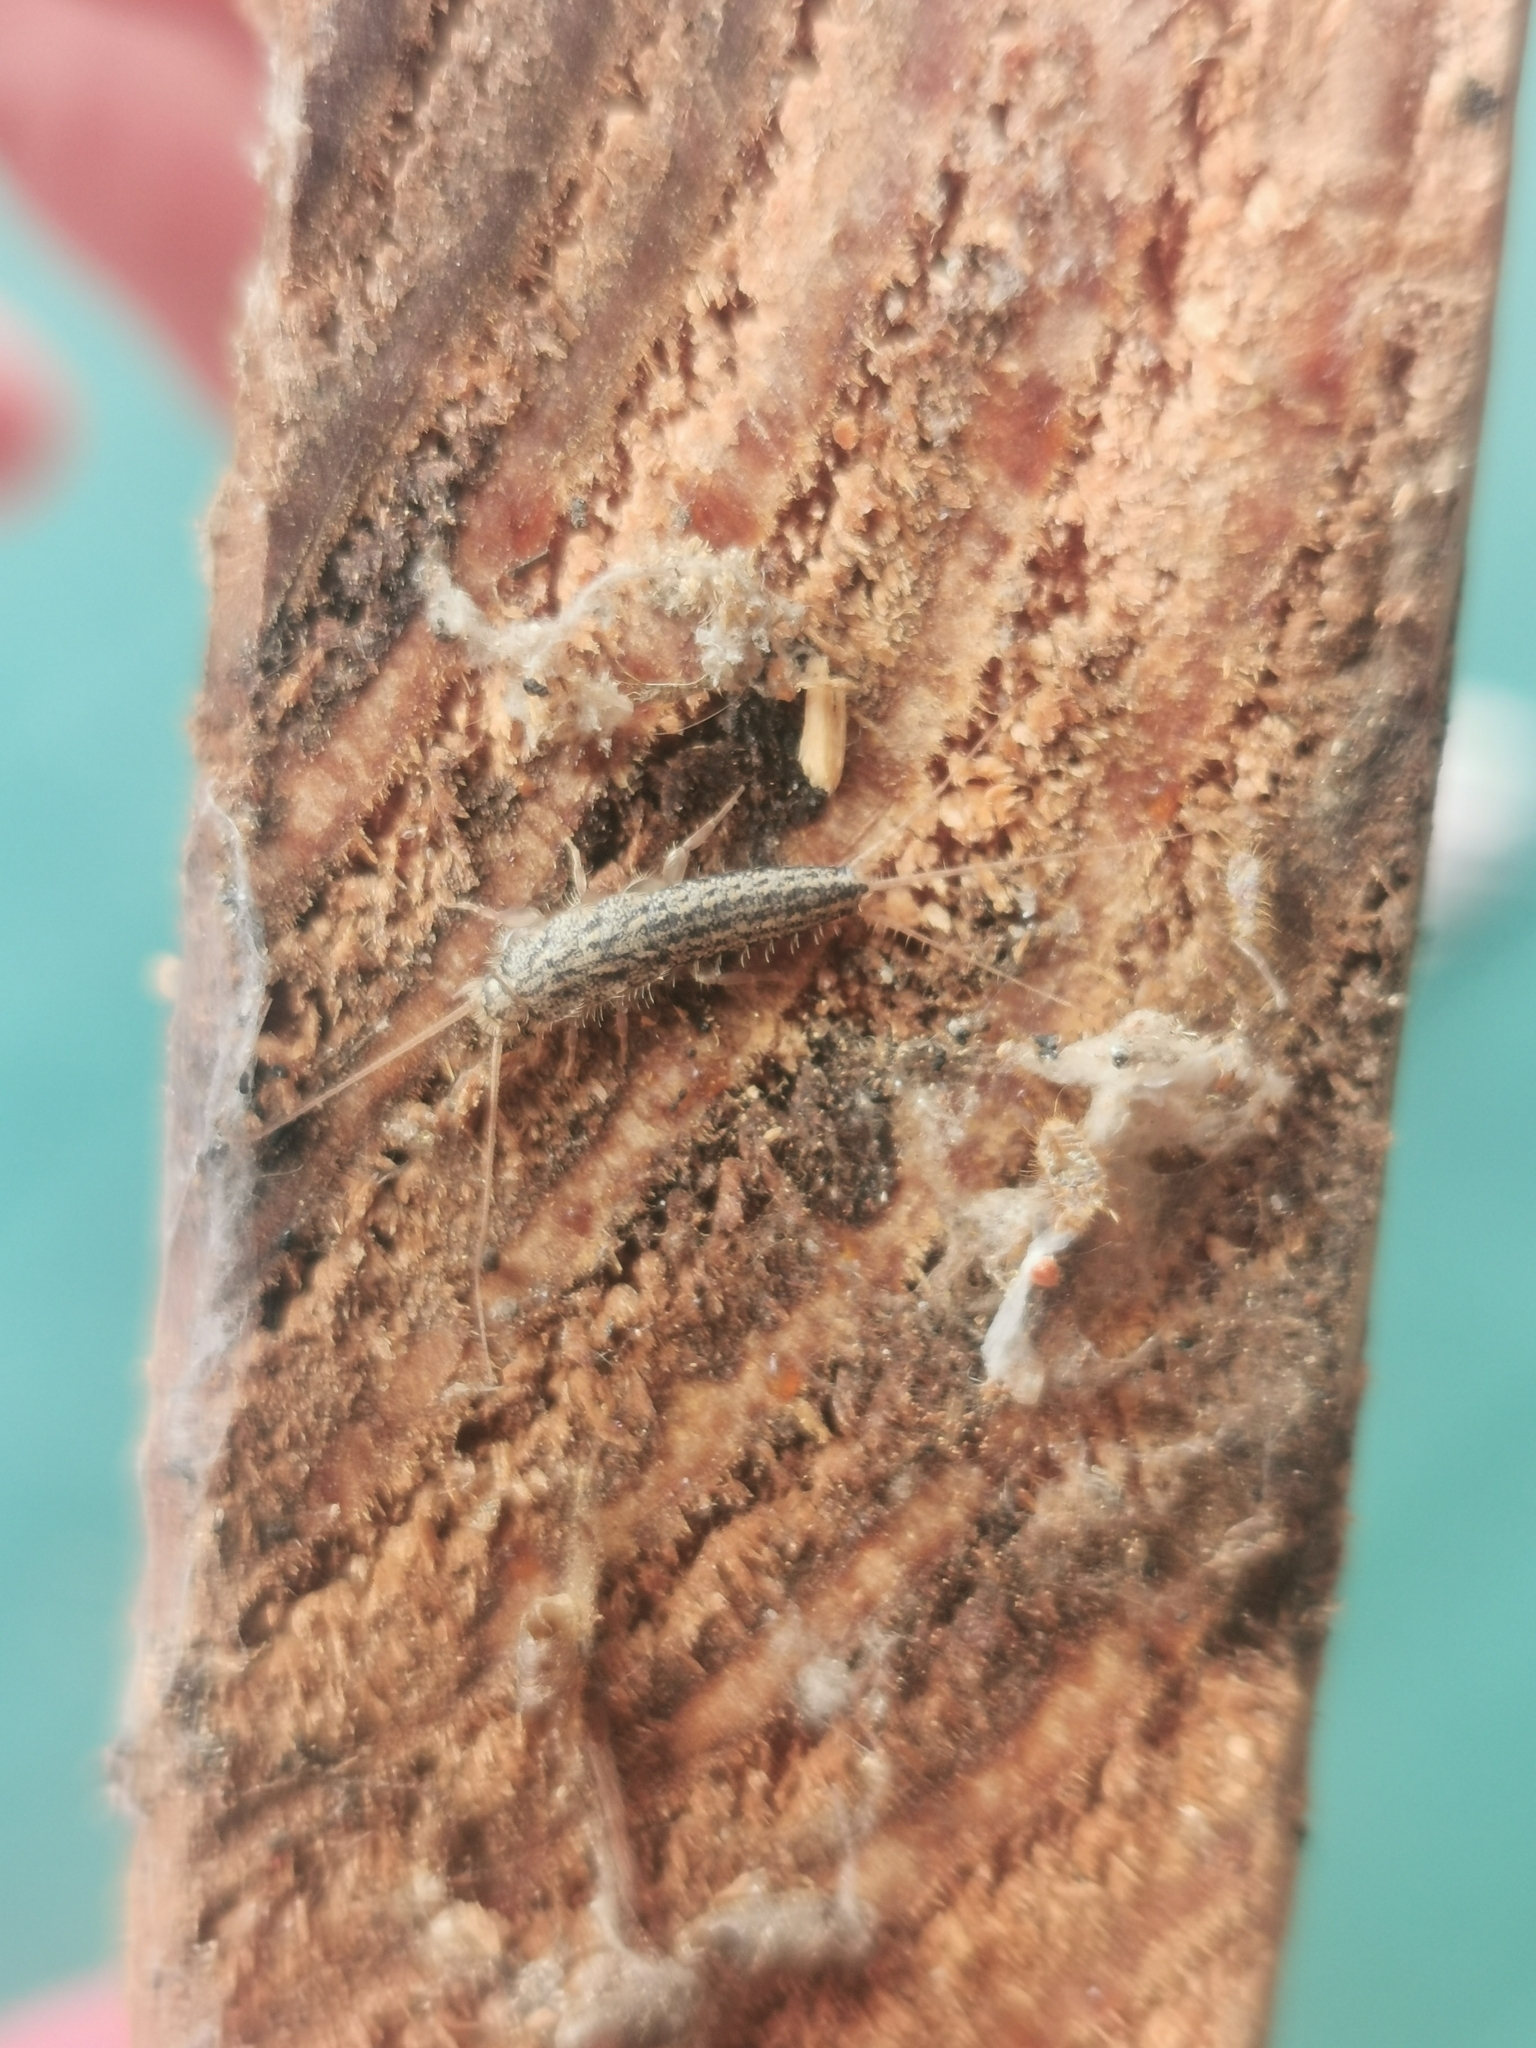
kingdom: Animalia
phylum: Arthropoda
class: Insecta
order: Zygentoma
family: Lepismatidae
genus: Ctenolepisma
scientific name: Ctenolepisma lineata
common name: Four-lined silverfish
